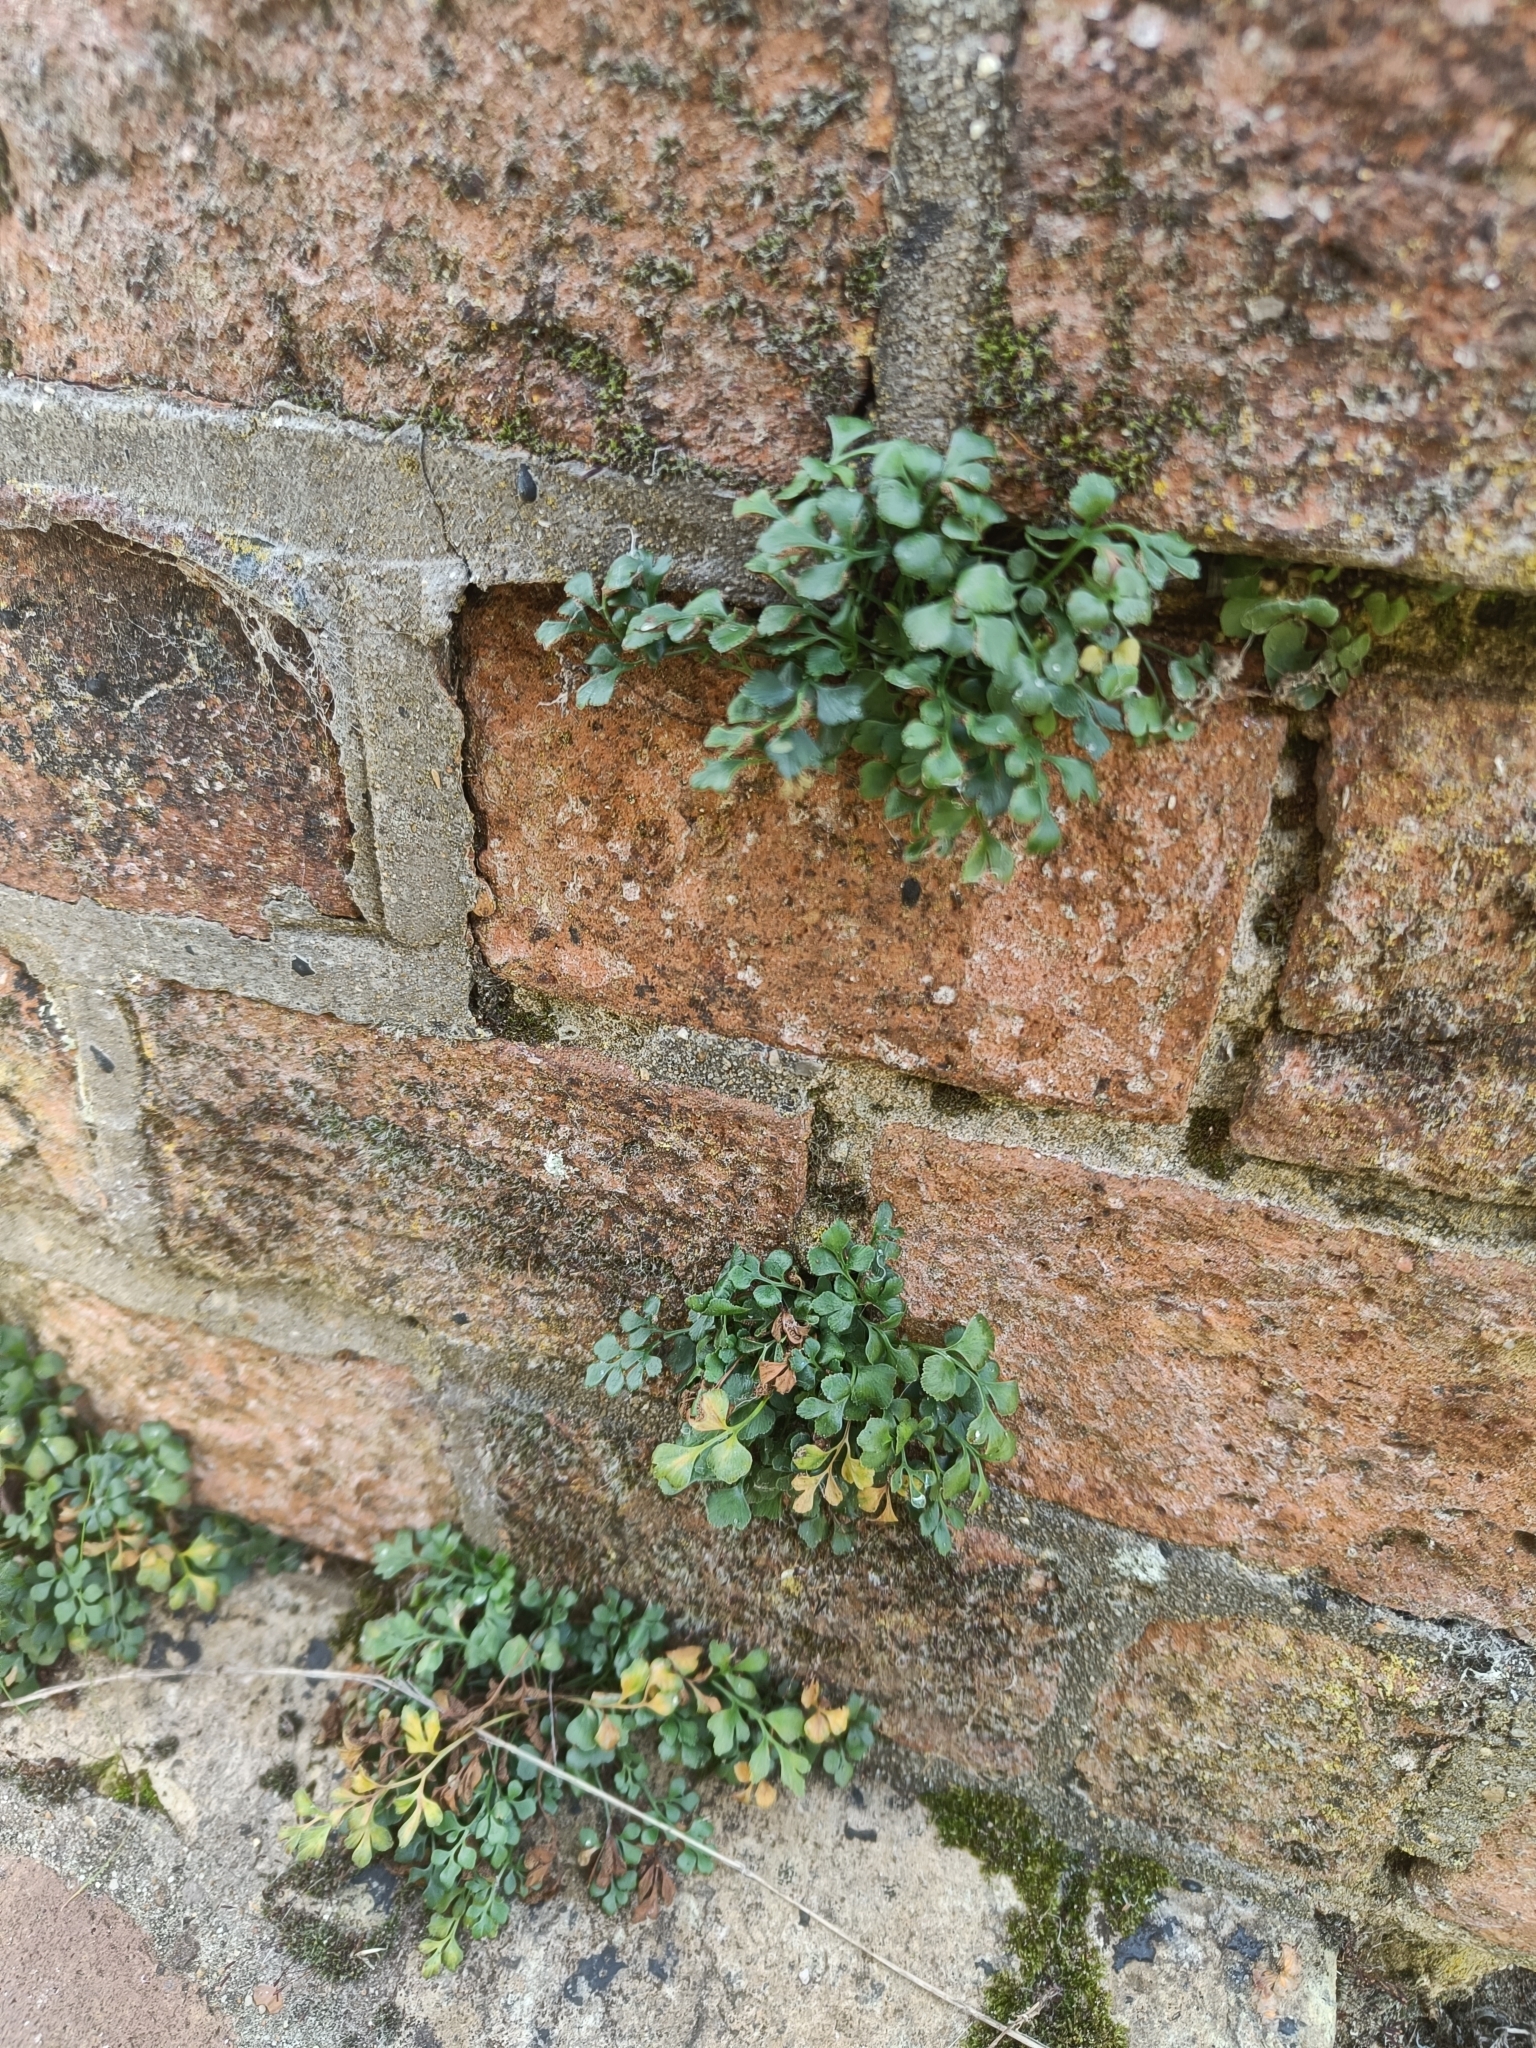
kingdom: Plantae
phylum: Tracheophyta
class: Polypodiopsida
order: Polypodiales
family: Aspleniaceae
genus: Asplenium
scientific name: Asplenium ruta-muraria
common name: Wall-rue
